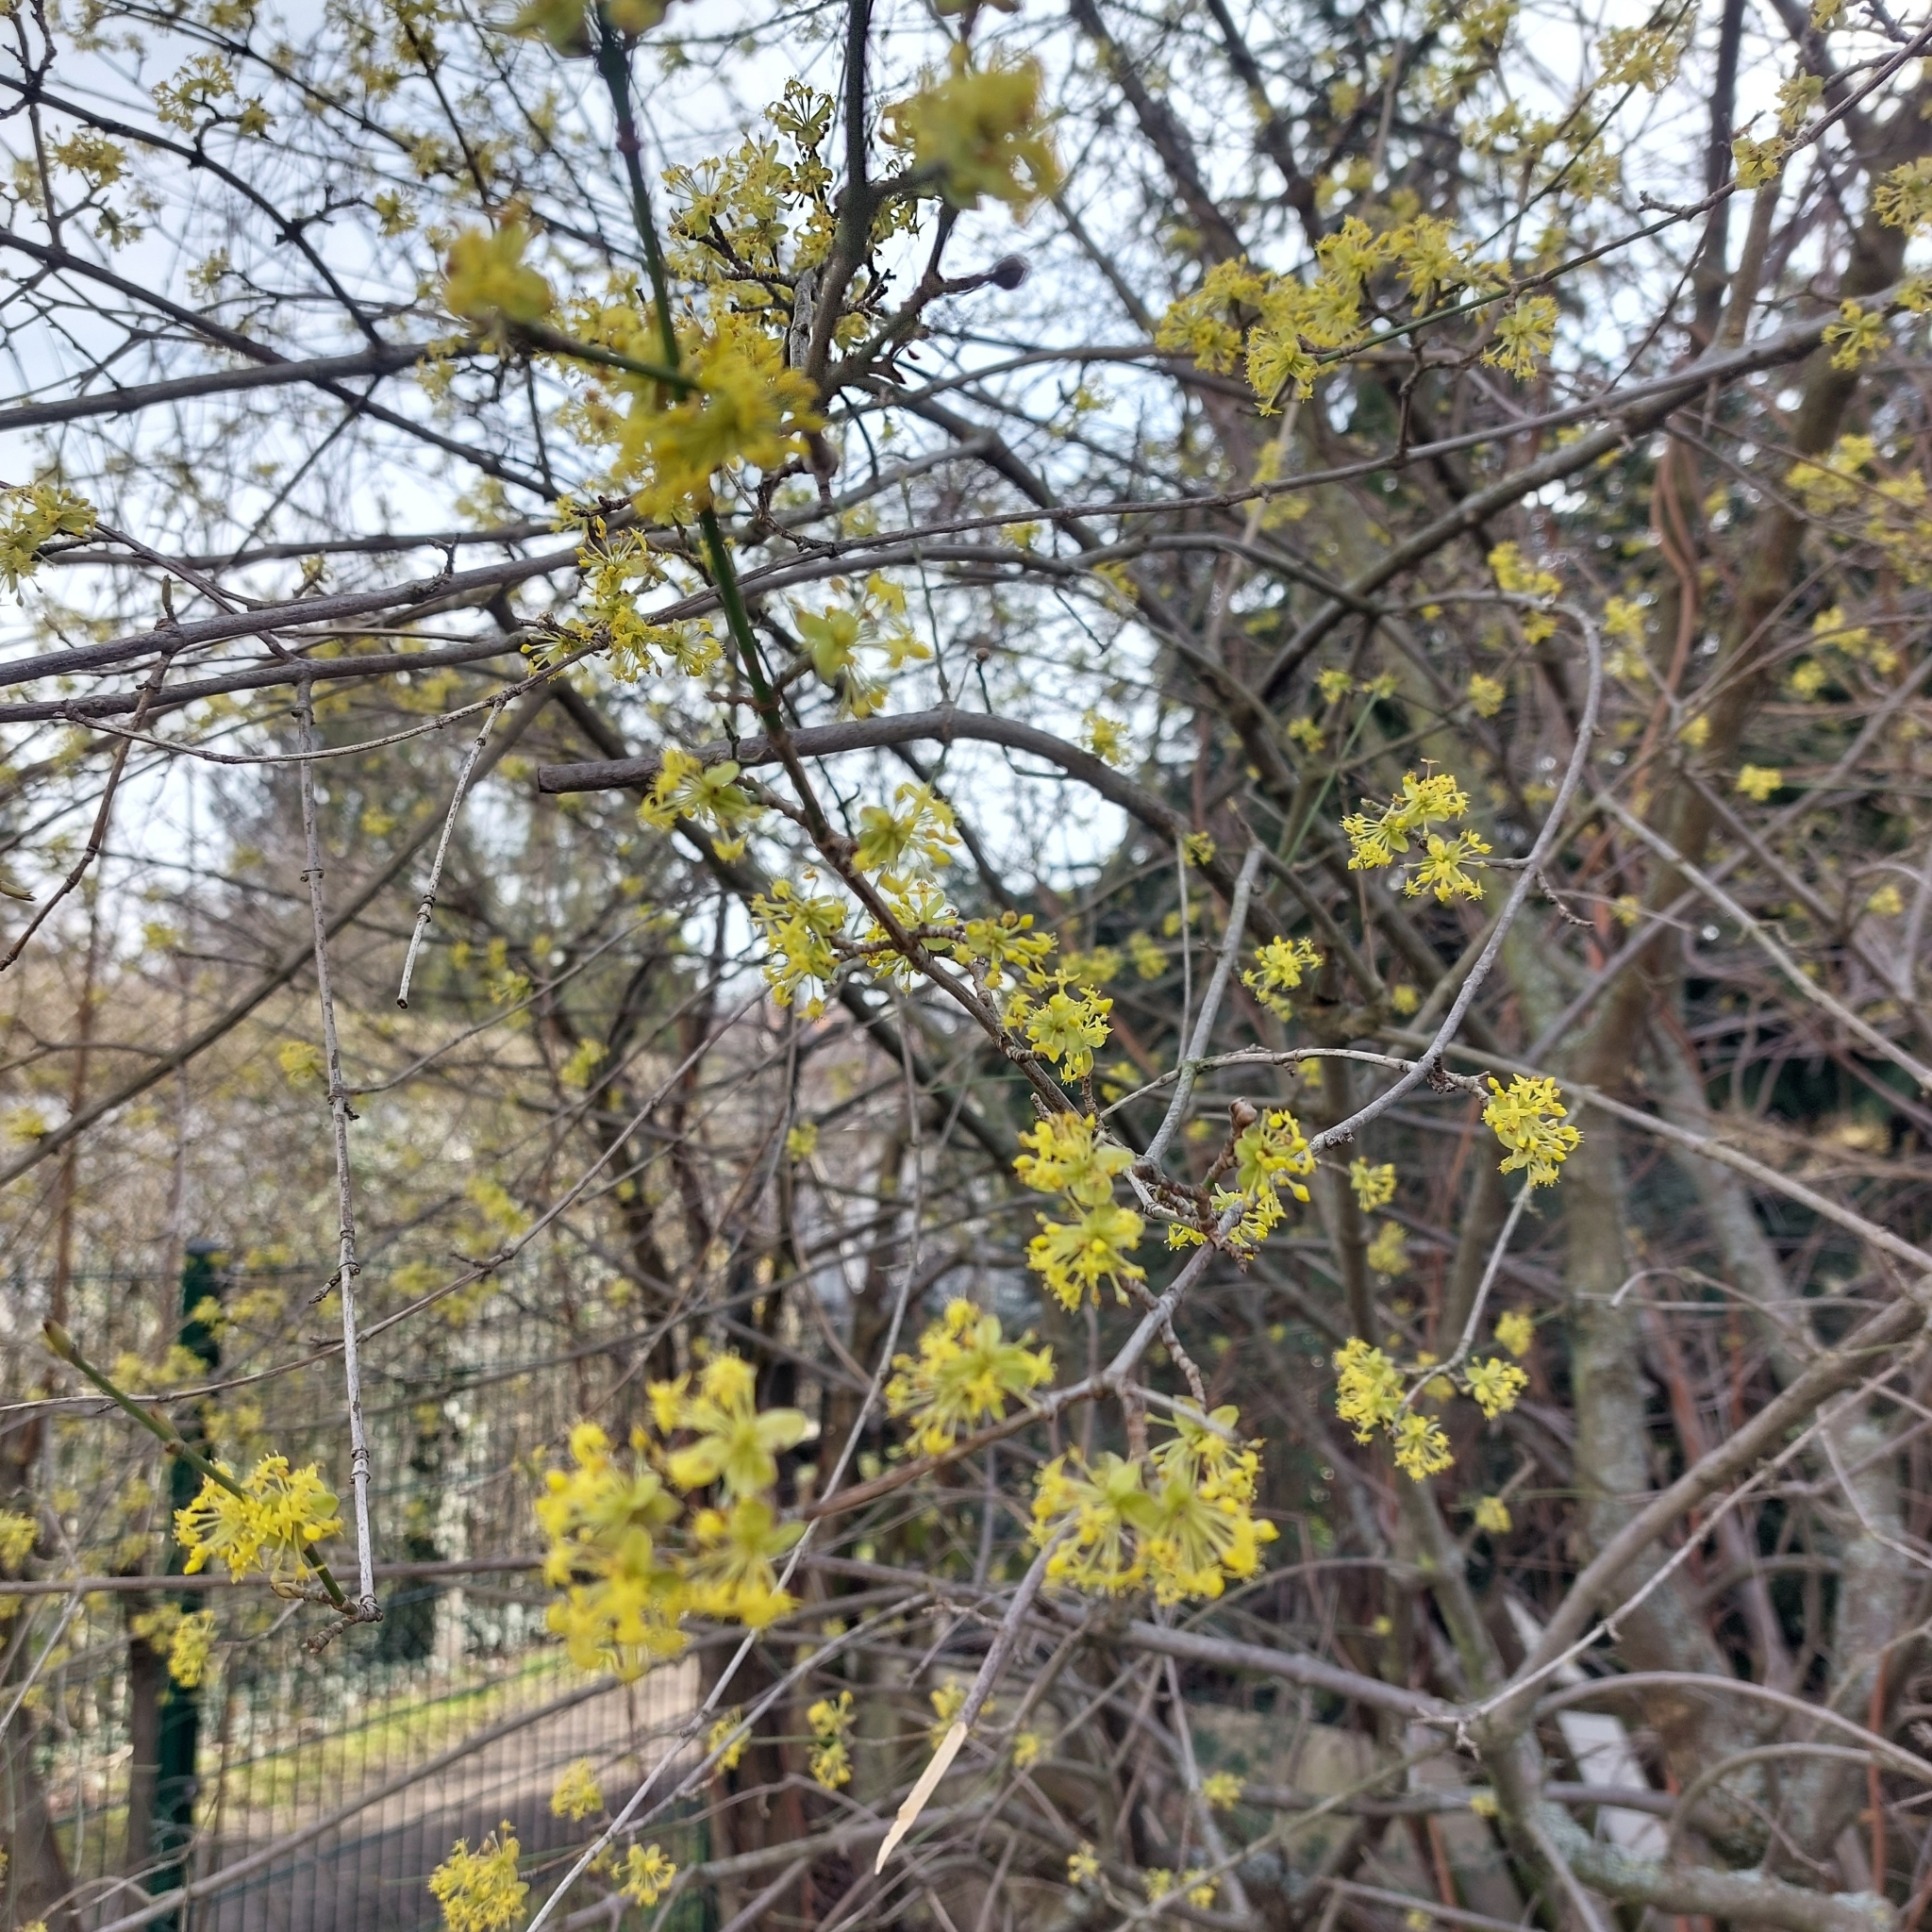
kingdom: Plantae
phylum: Tracheophyta
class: Magnoliopsida
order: Cornales
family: Cornaceae
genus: Cornus
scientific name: Cornus mas
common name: Cornelian-cherry
